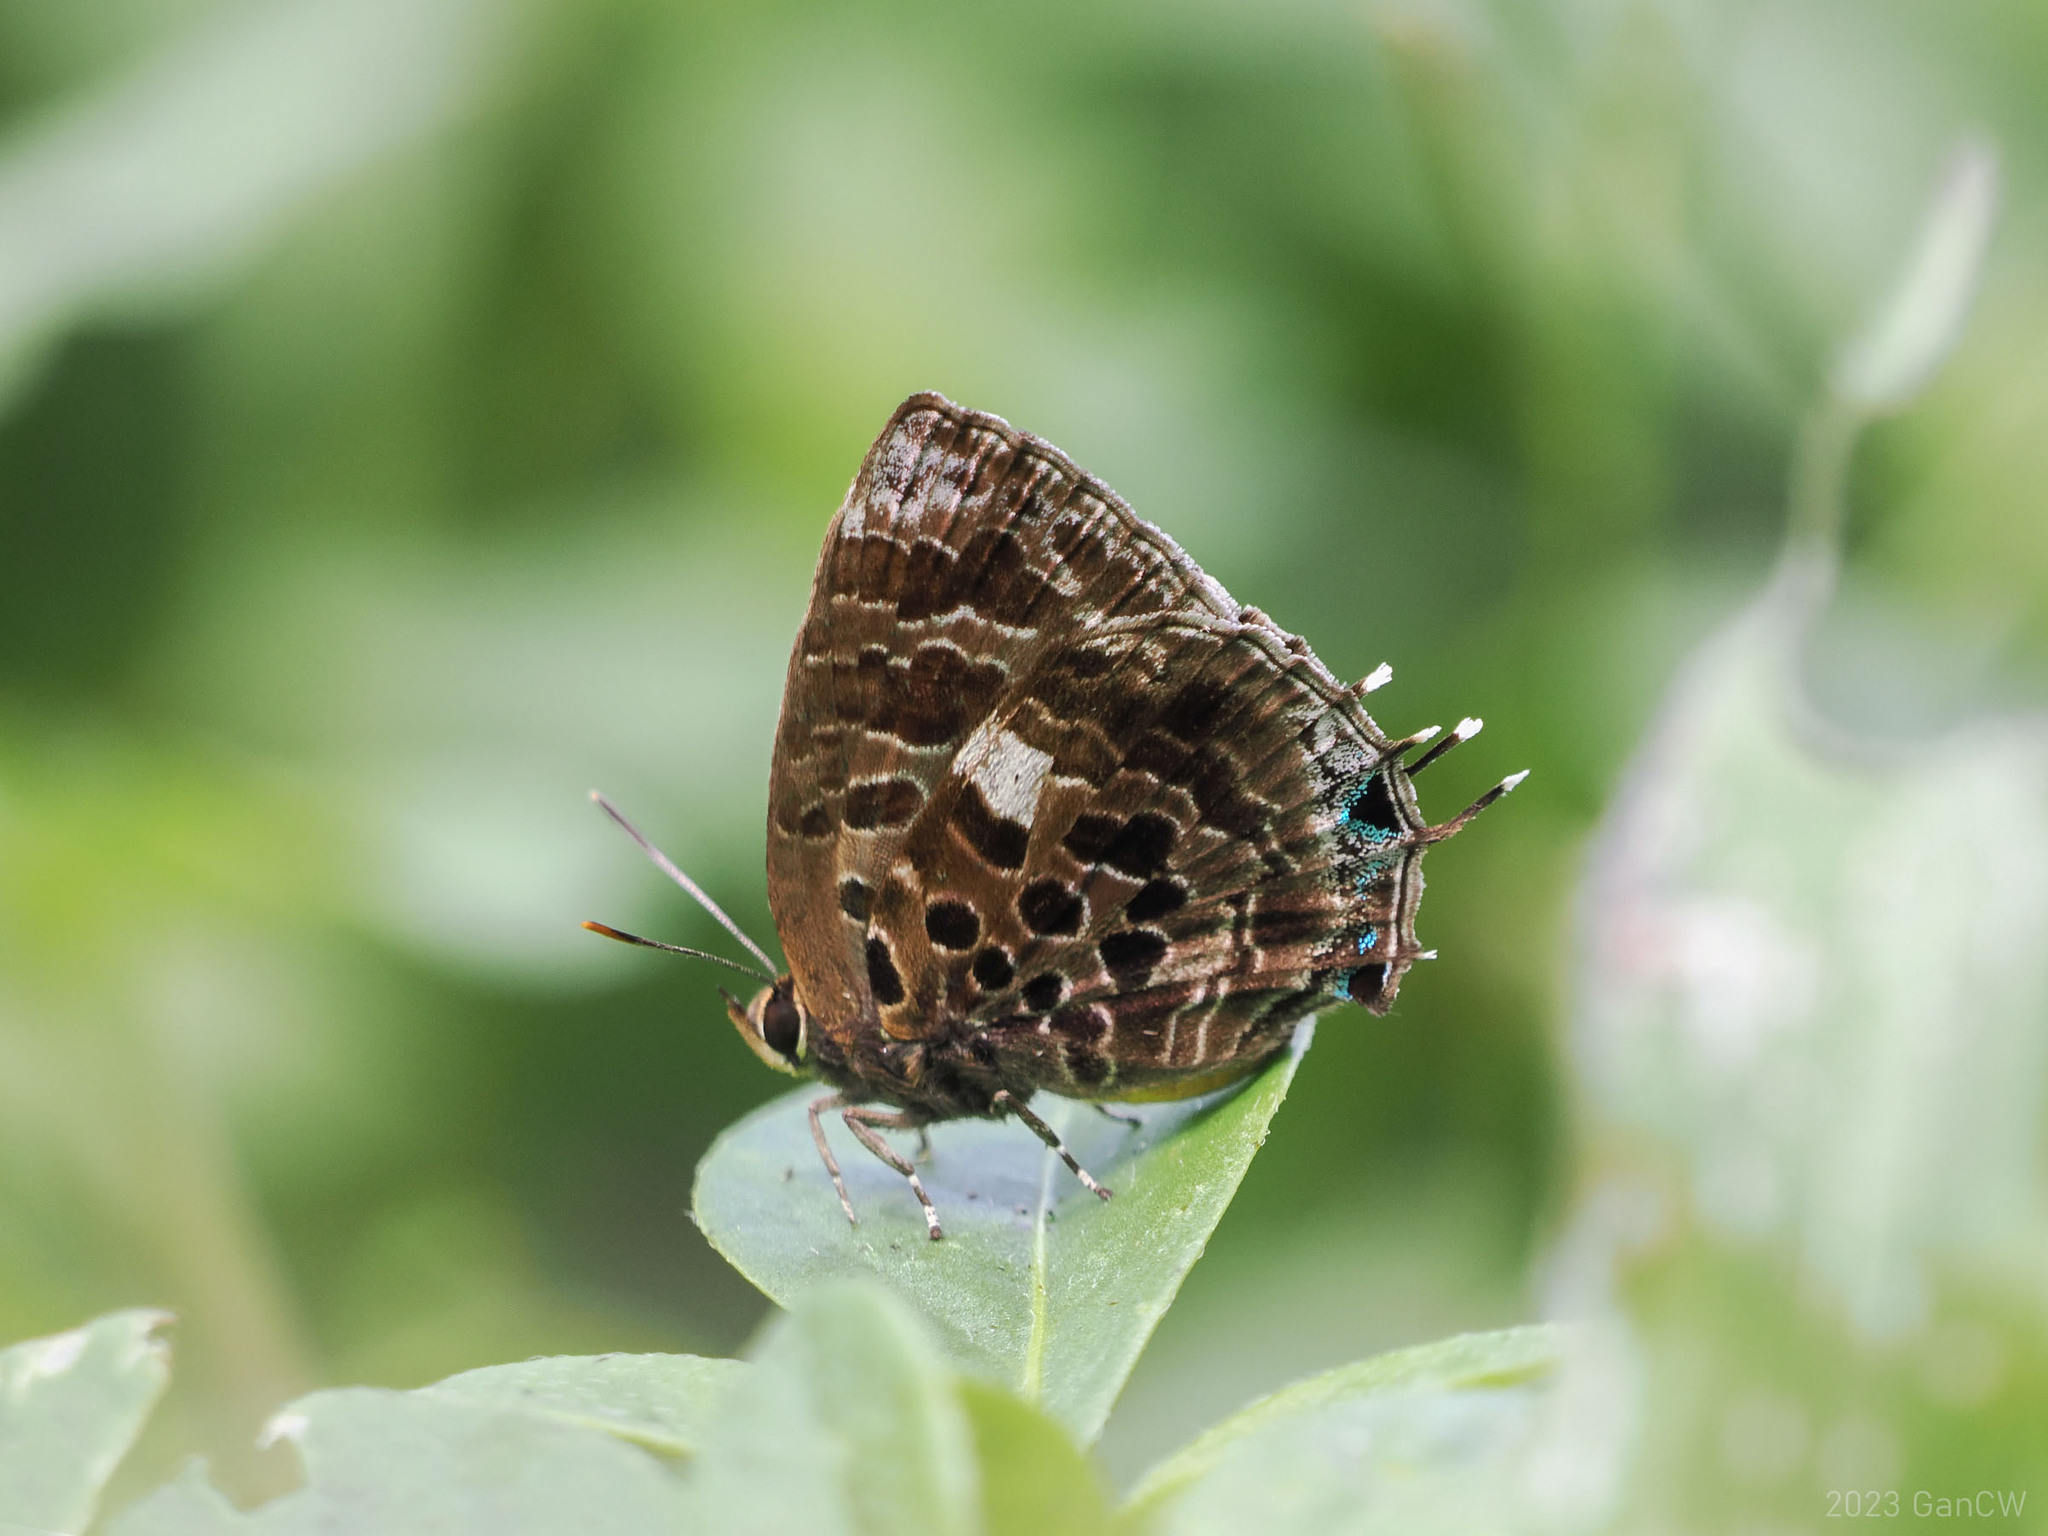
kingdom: Animalia
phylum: Arthropoda
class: Insecta
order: Lepidoptera
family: Lycaenidae
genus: Arhopala
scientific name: Arhopala abseus
